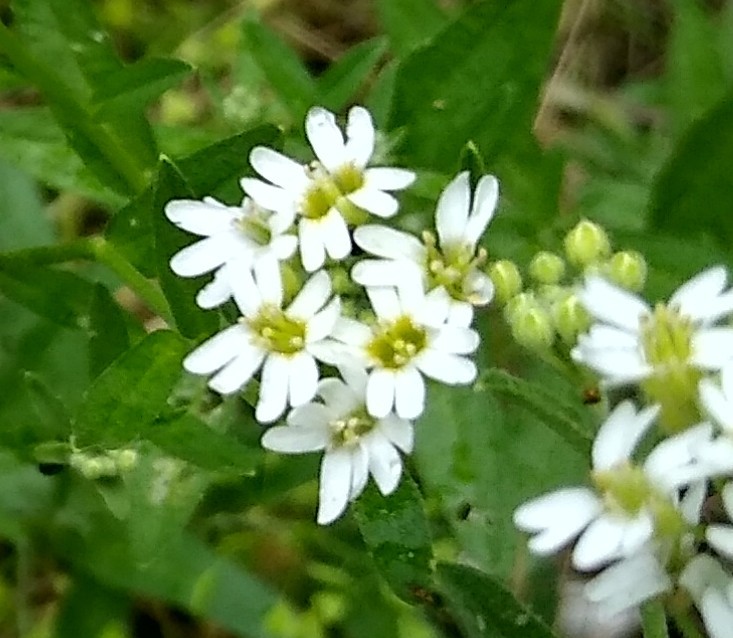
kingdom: Plantae
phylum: Tracheophyta
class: Magnoliopsida
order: Brassicales
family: Brassicaceae
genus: Berteroa
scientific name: Berteroa incana
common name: Hoary alison
